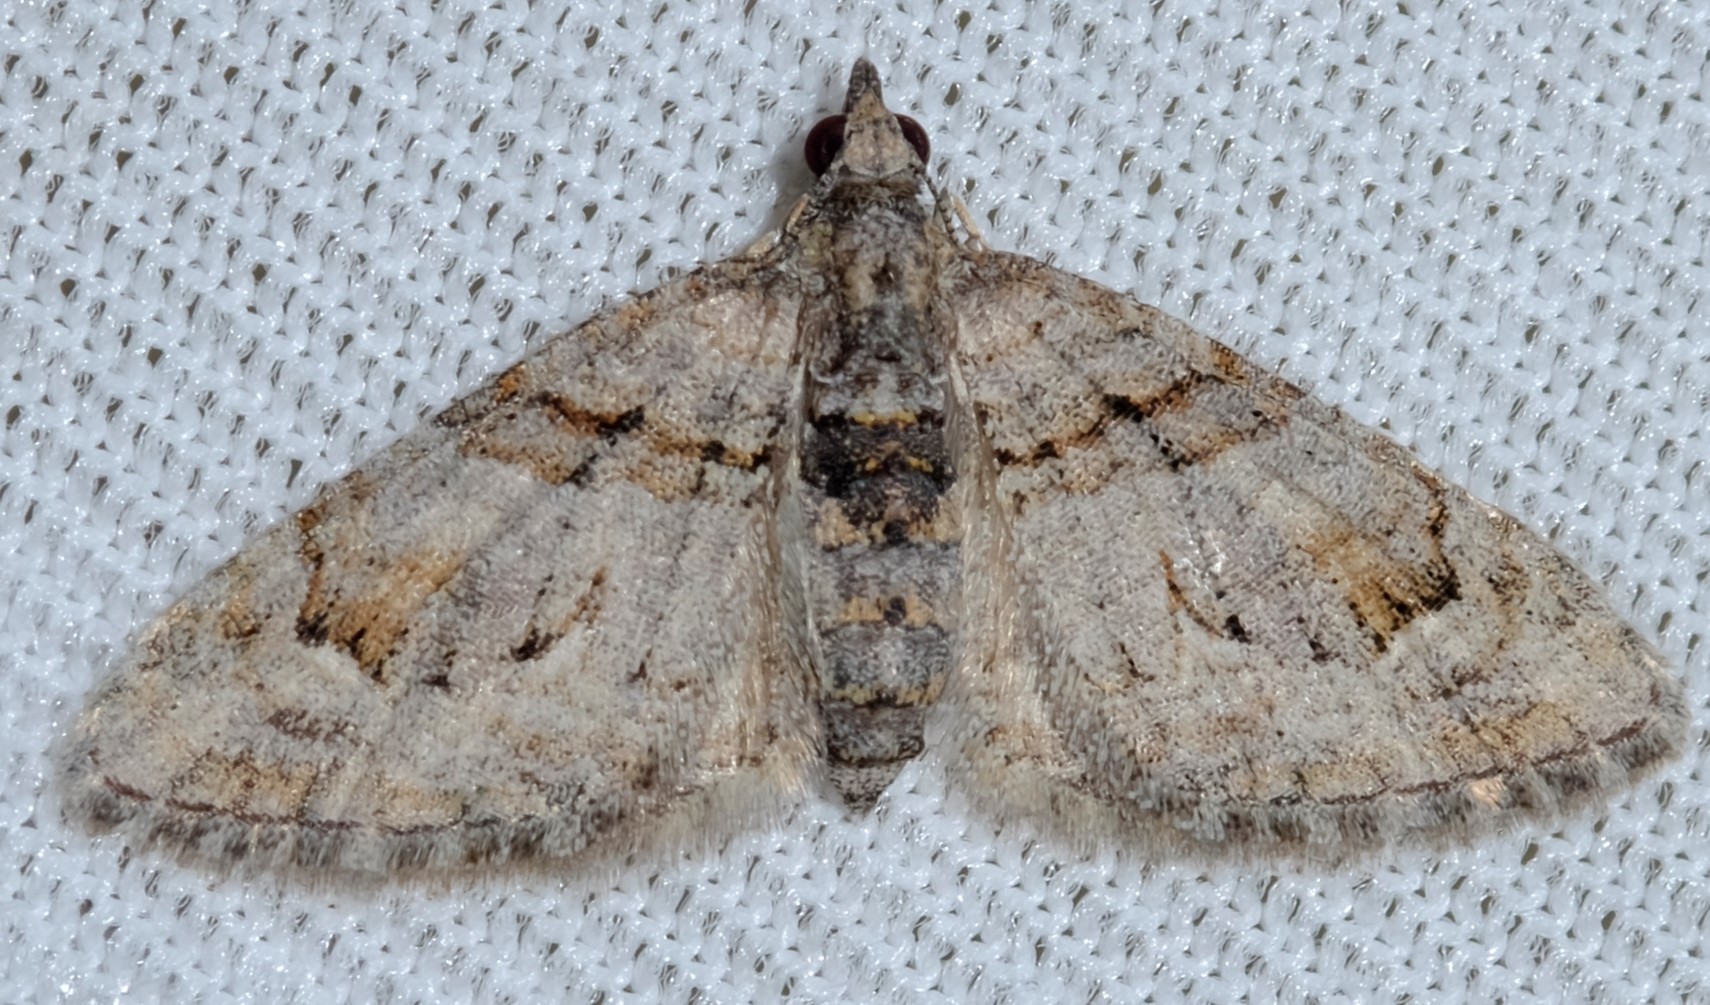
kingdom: Animalia
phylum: Arthropoda
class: Insecta
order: Lepidoptera
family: Geometridae
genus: Phrissogonus
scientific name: Phrissogonus laticostata
